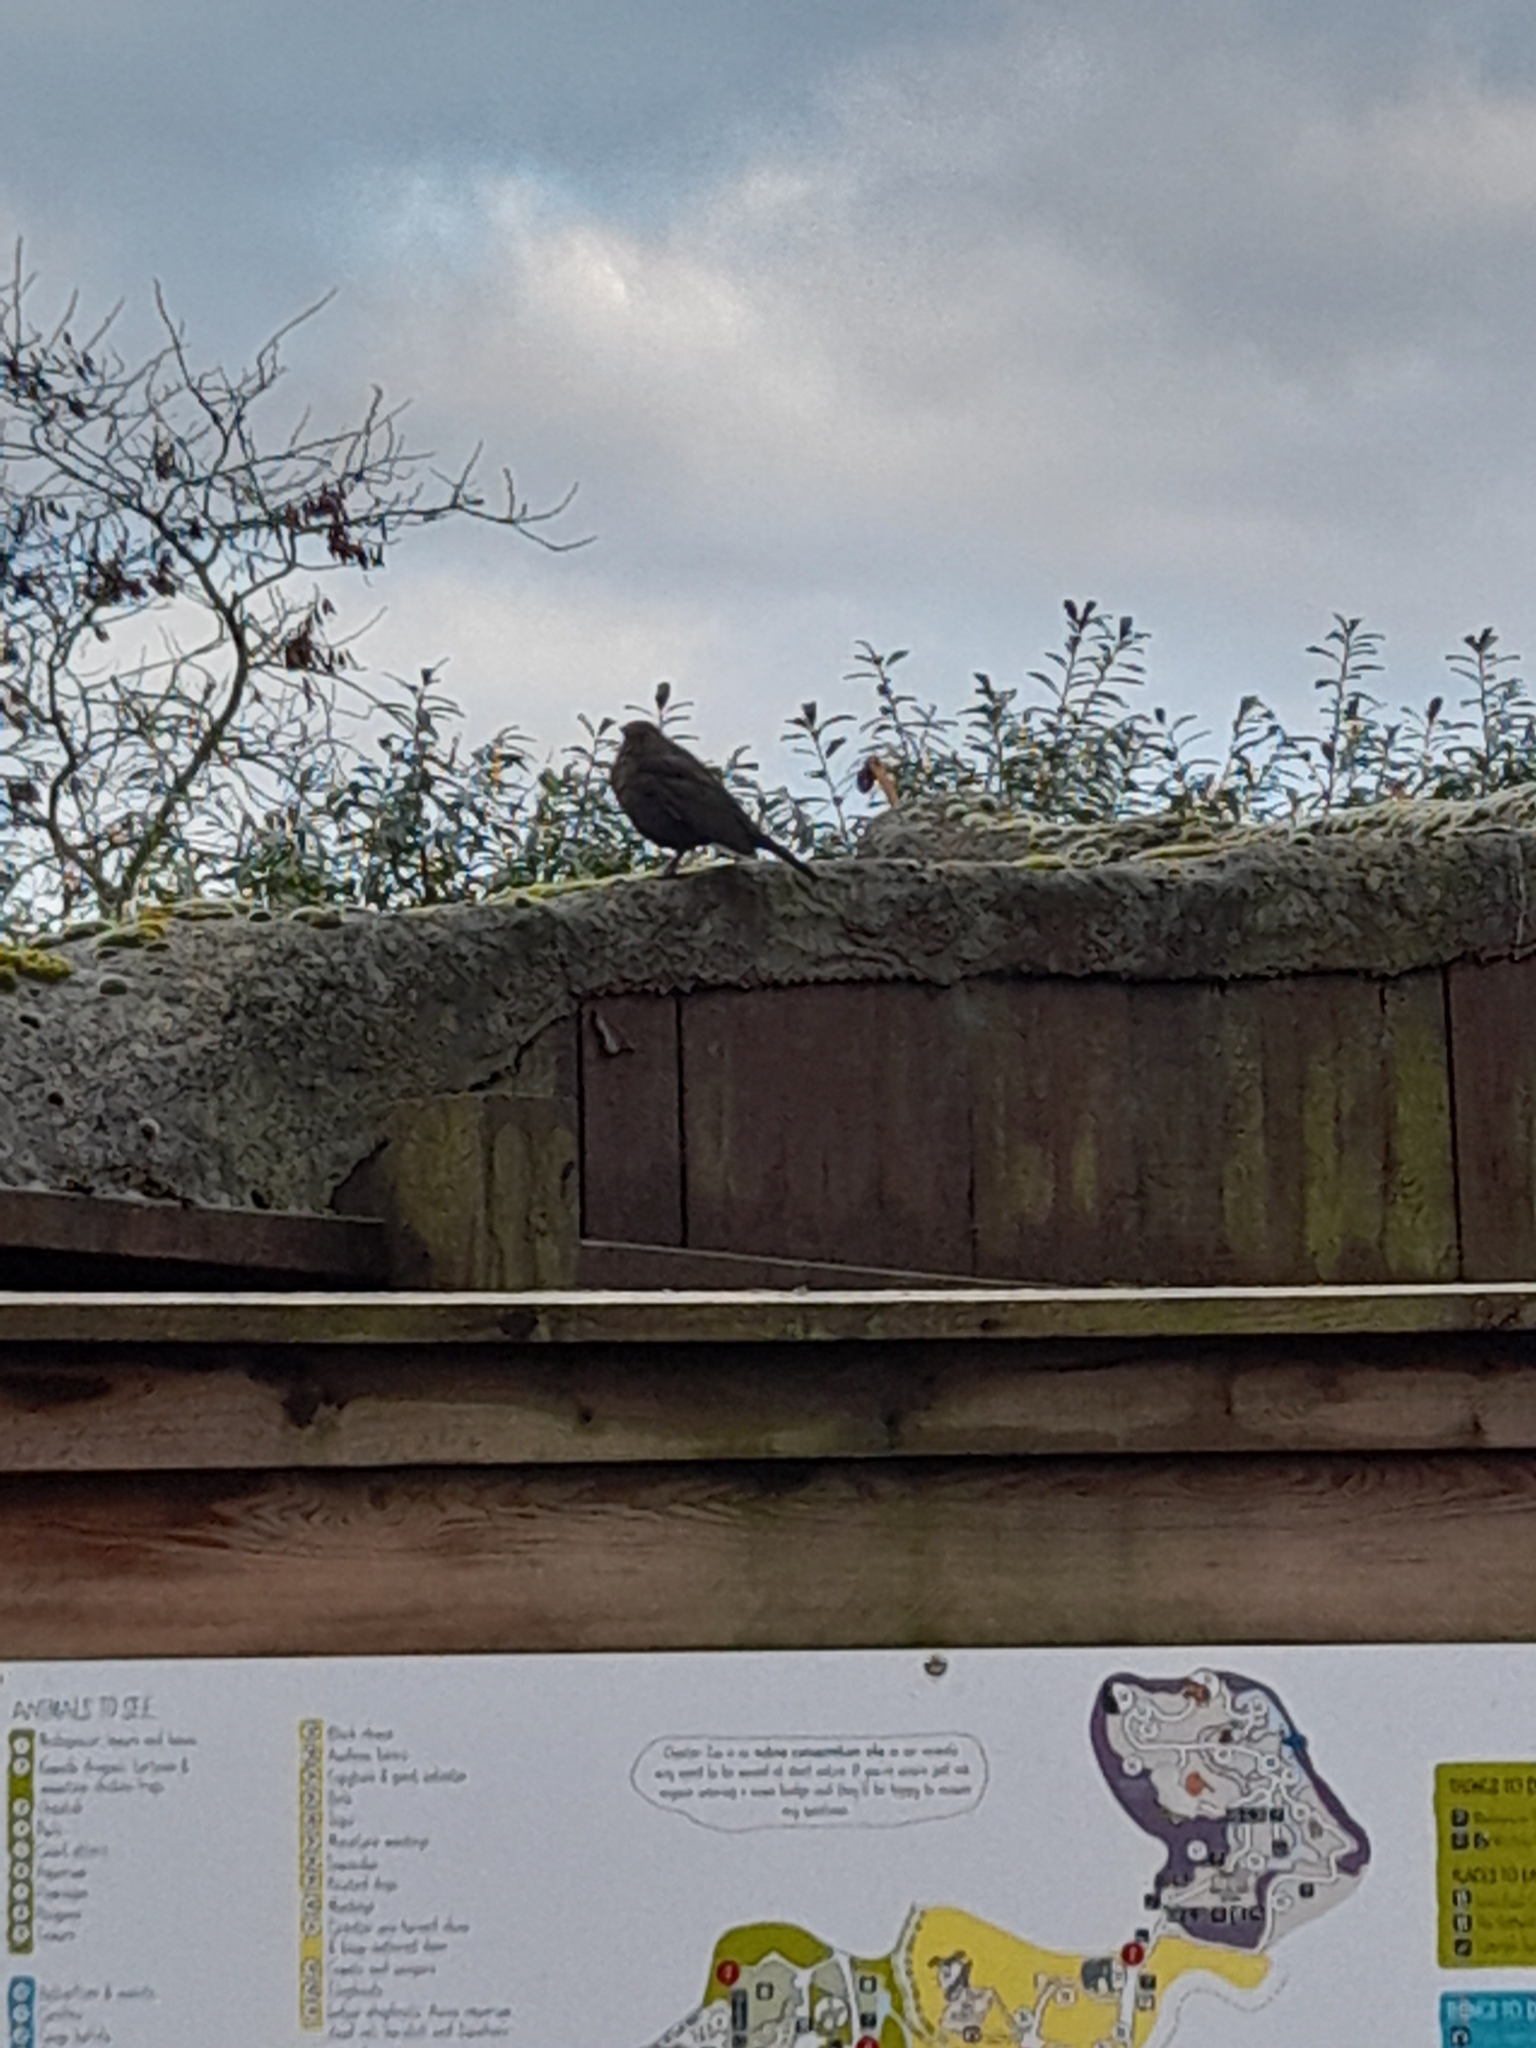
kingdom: Animalia
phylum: Chordata
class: Aves
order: Passeriformes
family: Turdidae
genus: Turdus
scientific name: Turdus merula
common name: Common blackbird
